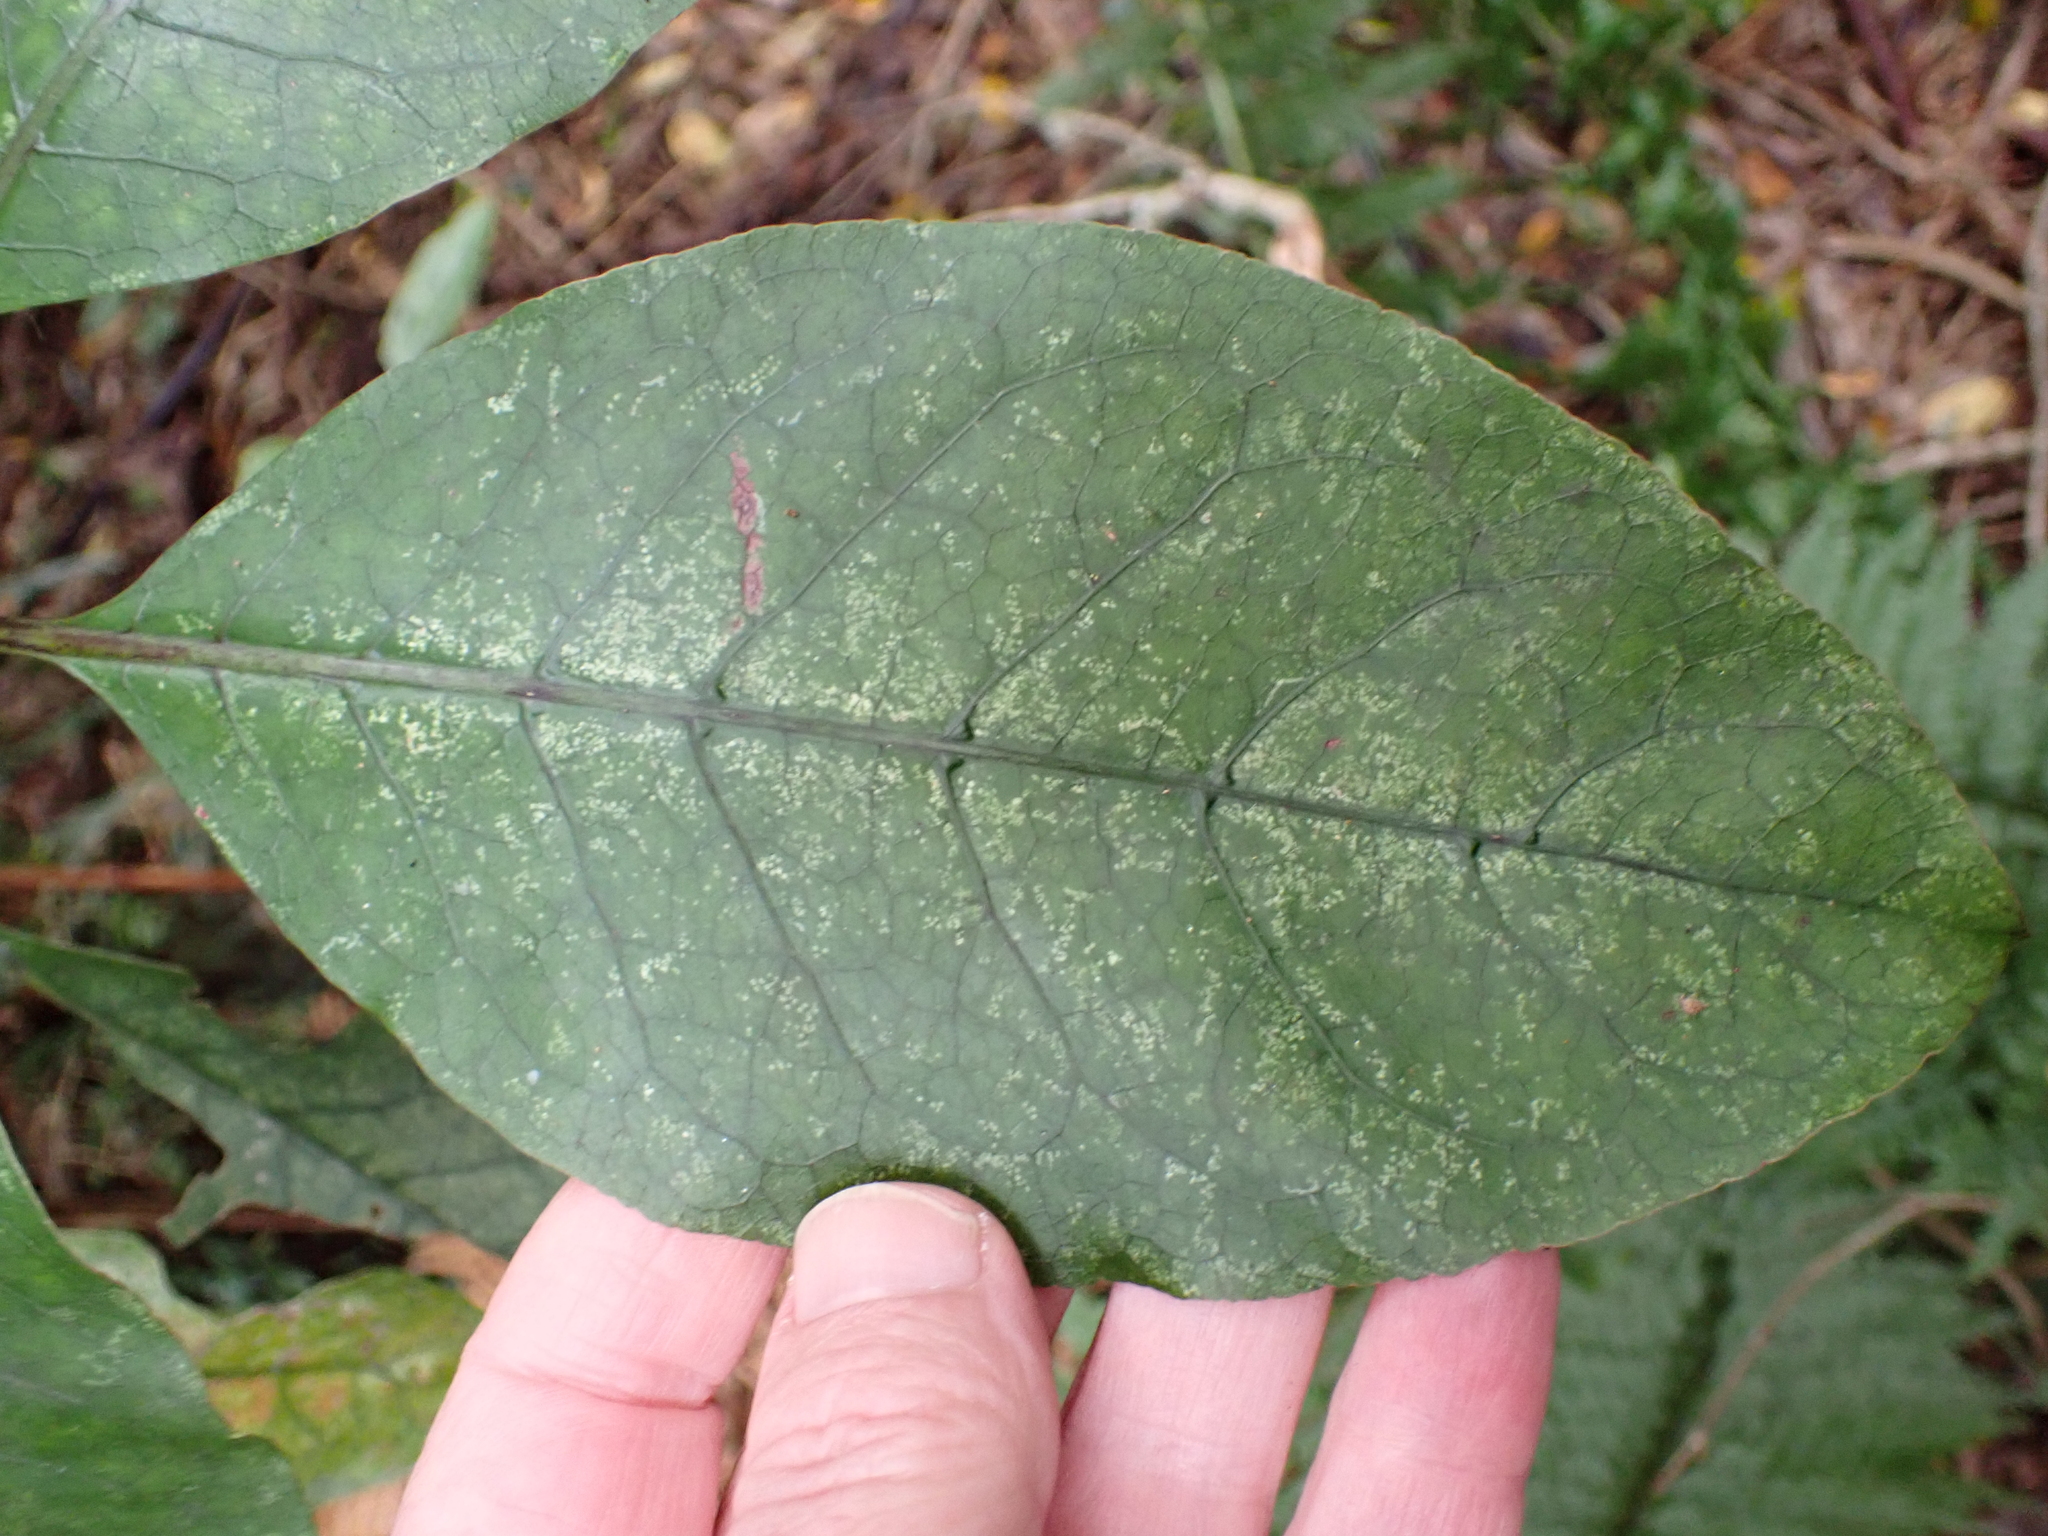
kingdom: Plantae
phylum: Tracheophyta
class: Magnoliopsida
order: Gentianales
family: Rubiaceae
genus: Coprosma
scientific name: Coprosma autumnalis
